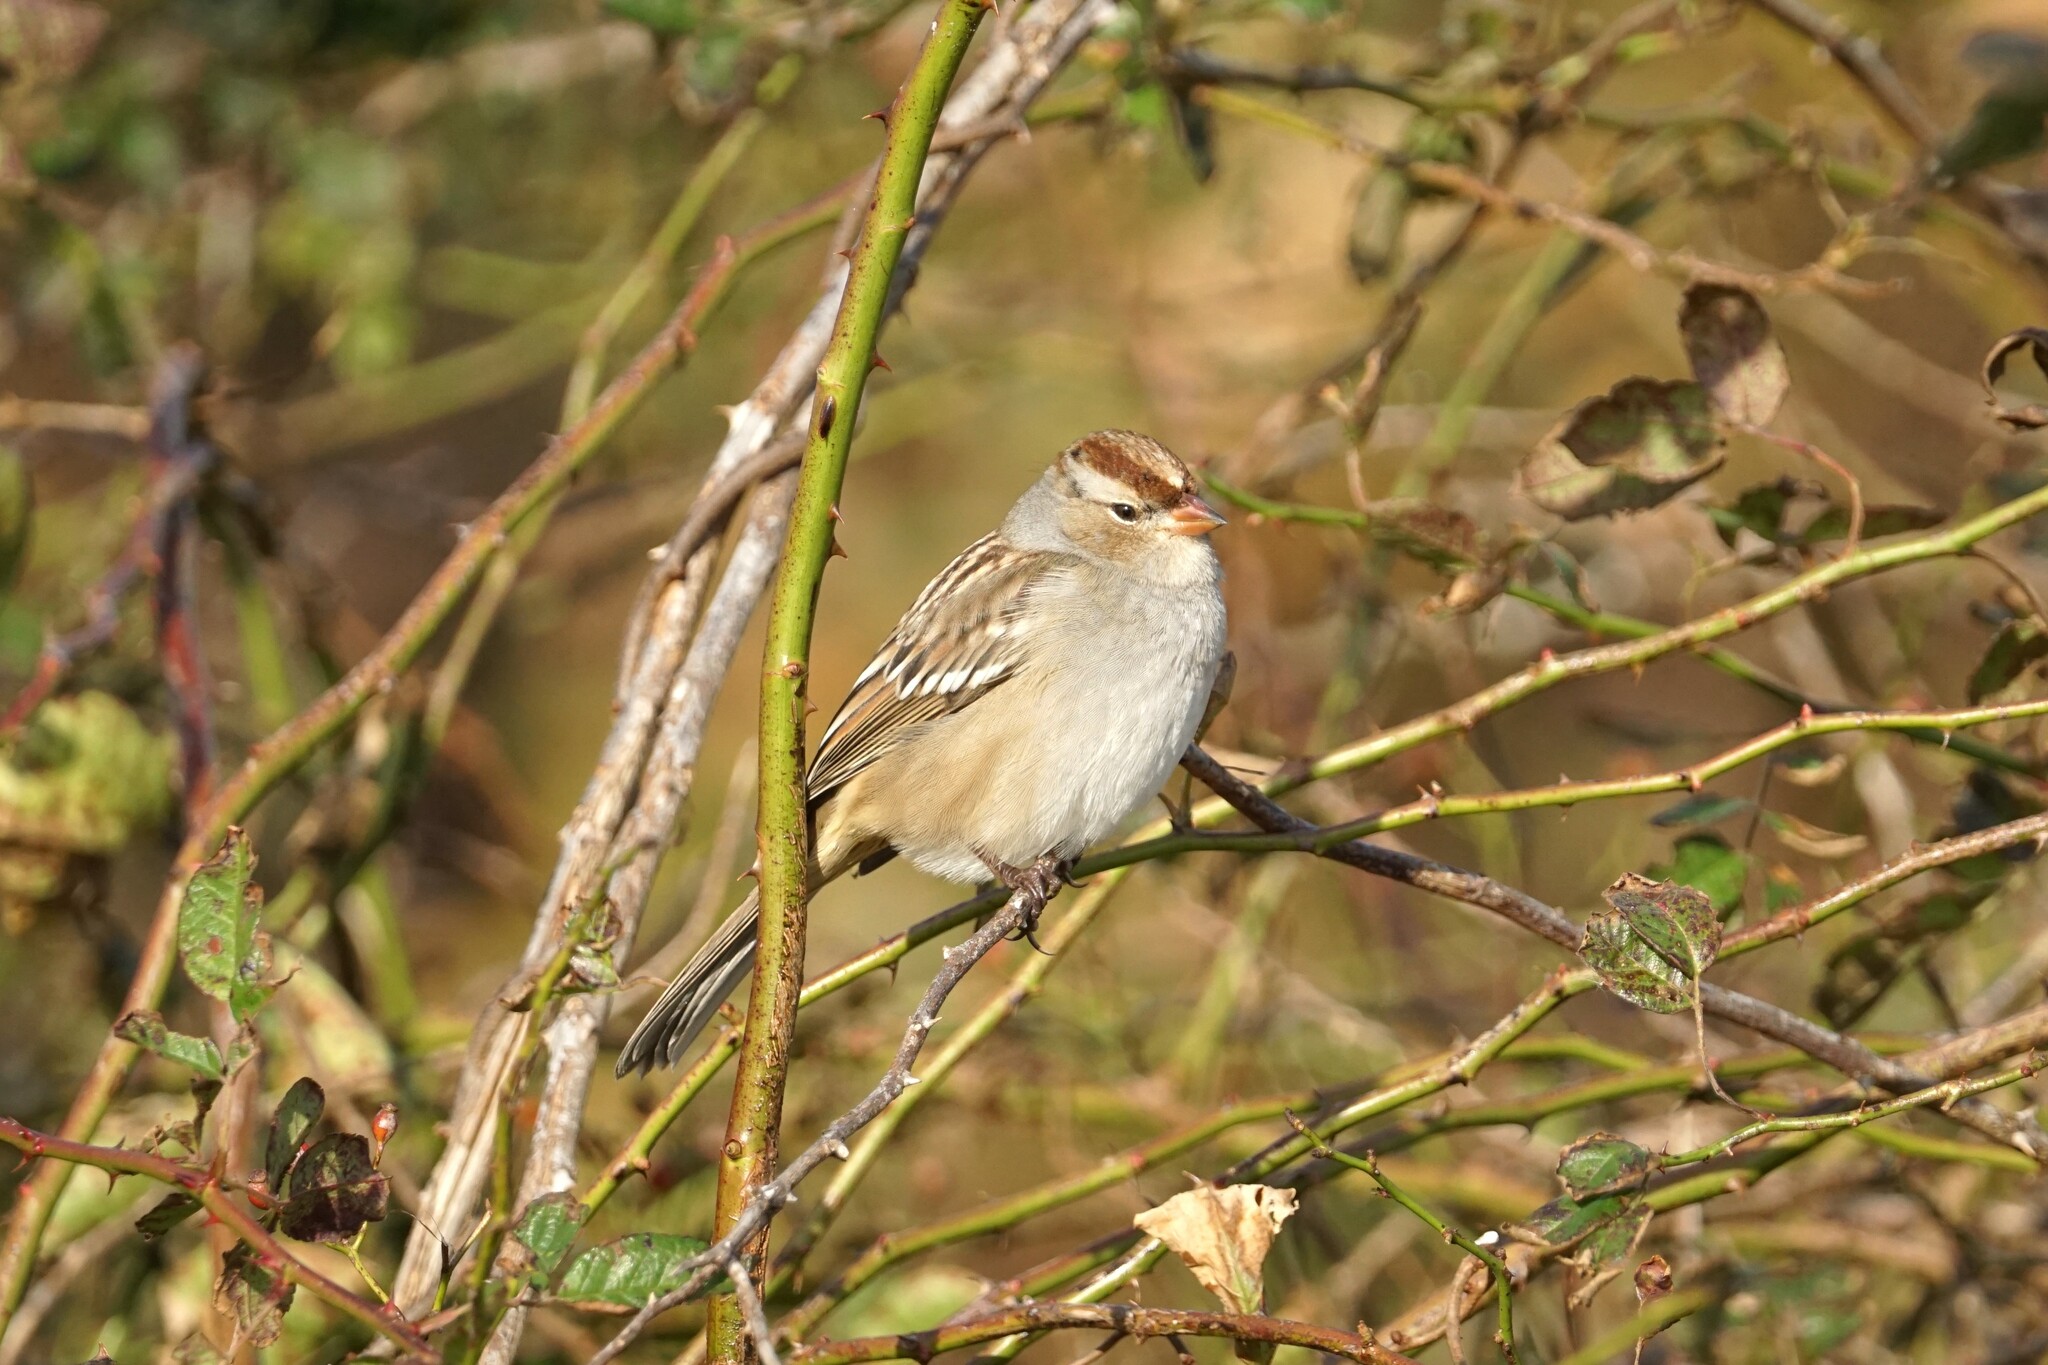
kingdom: Animalia
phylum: Chordata
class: Aves
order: Passeriformes
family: Passerellidae
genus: Zonotrichia
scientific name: Zonotrichia leucophrys
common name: White-crowned sparrow
